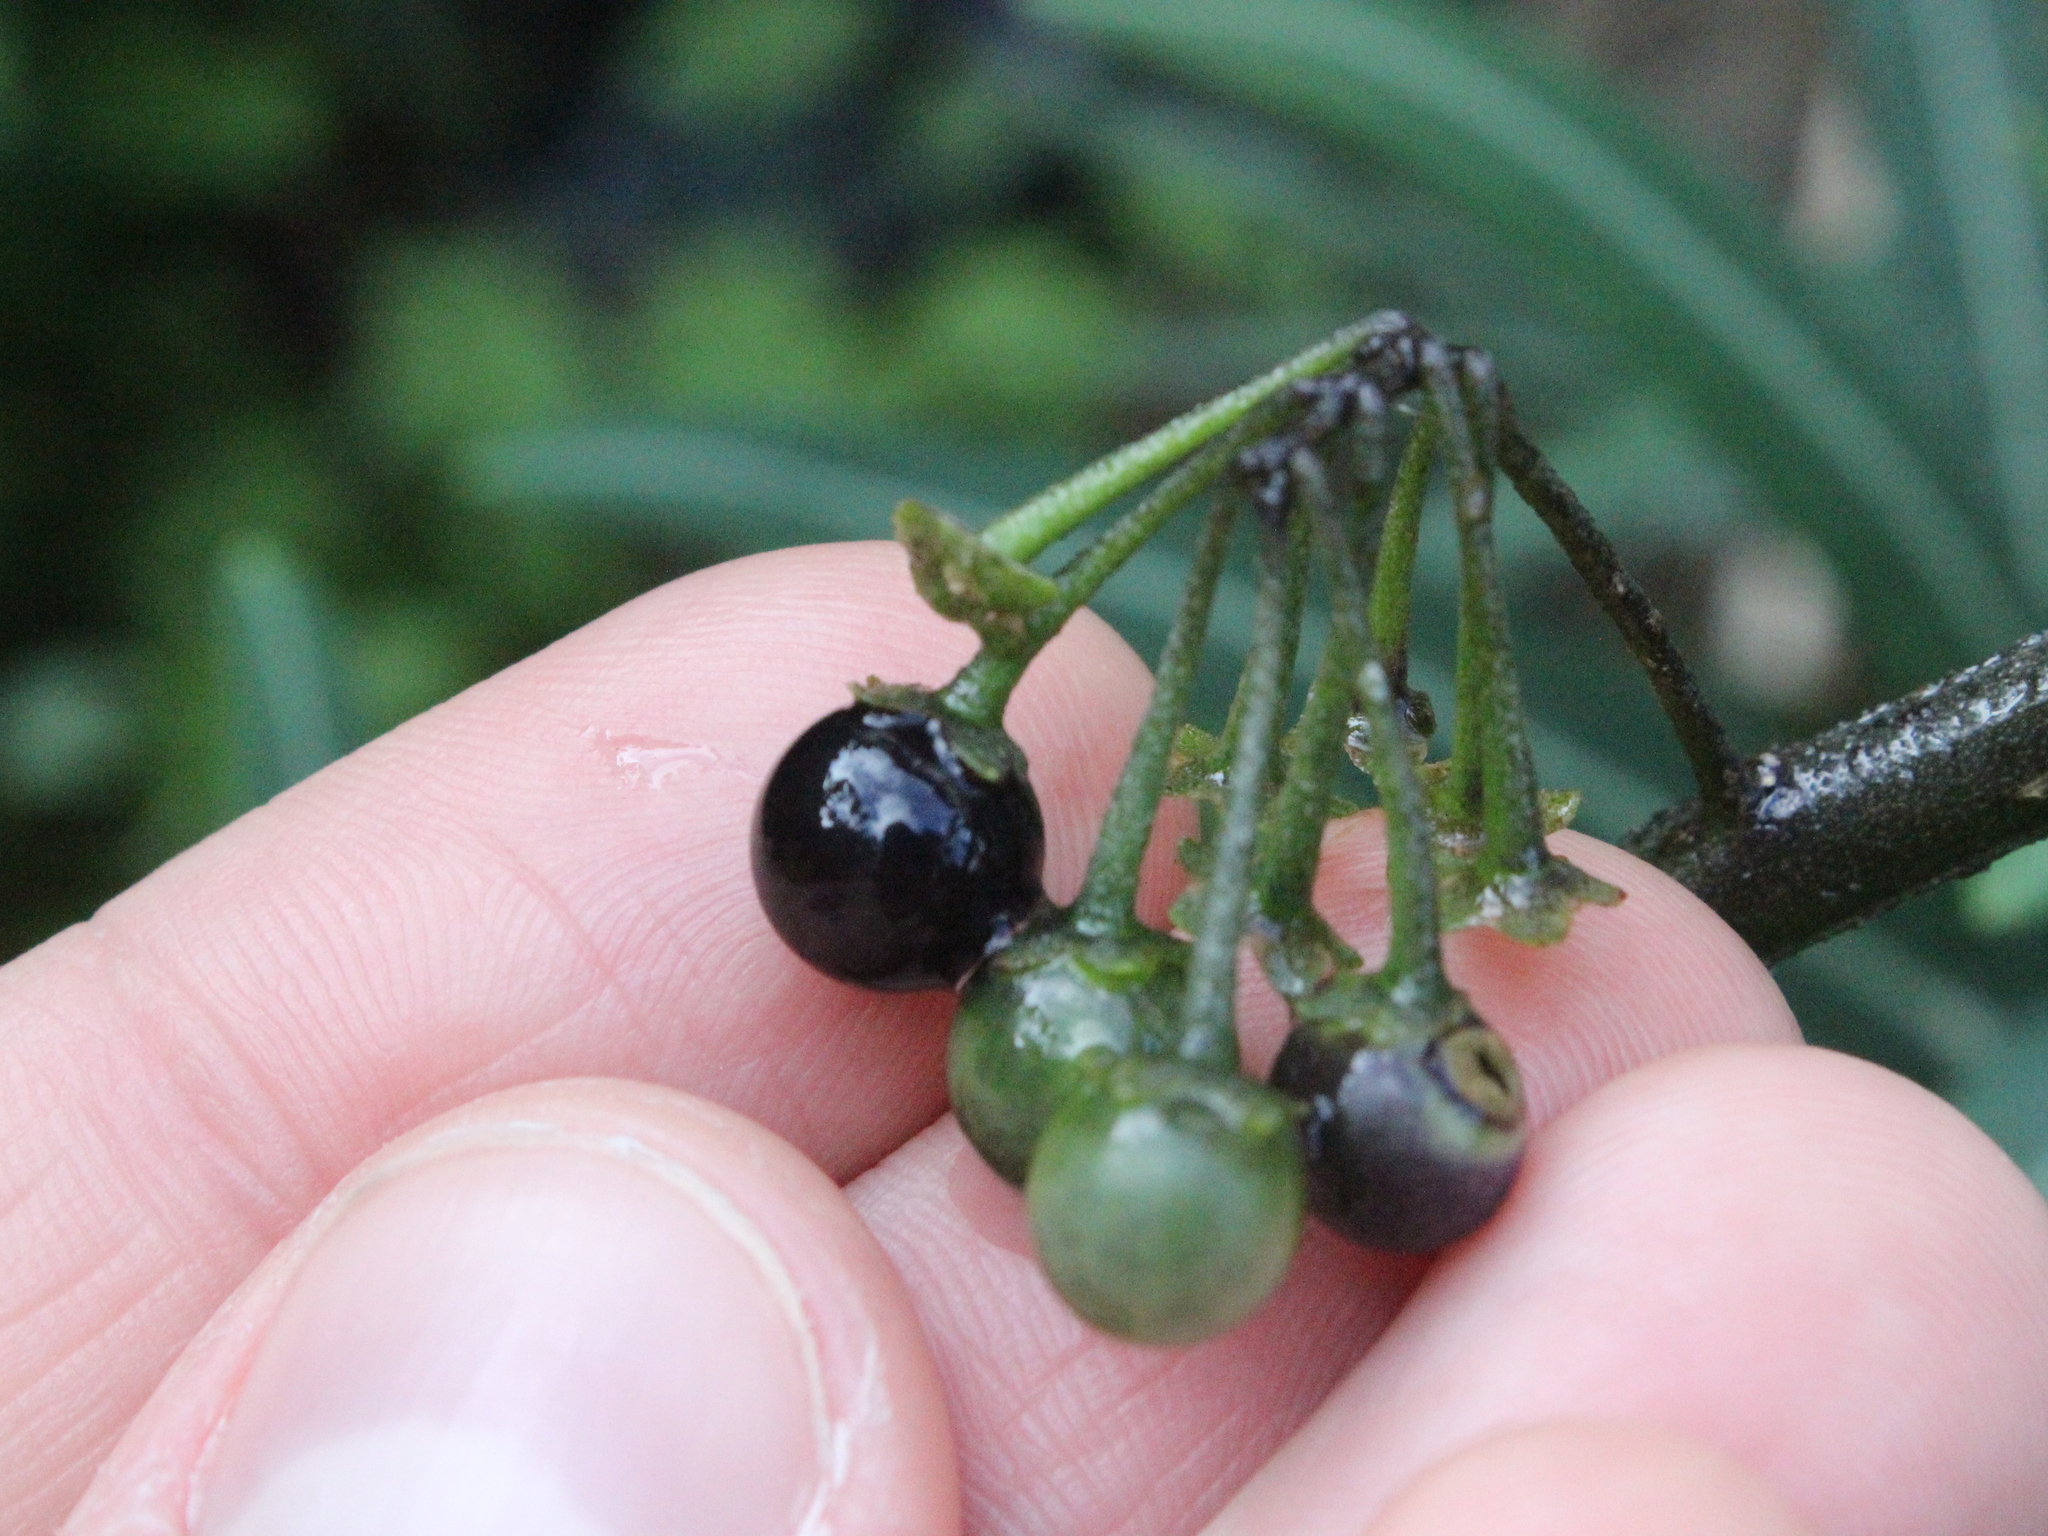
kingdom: Plantae
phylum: Tracheophyta
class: Magnoliopsida
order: Solanales
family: Solanaceae
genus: Solanum
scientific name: Solanum nigrum
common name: Black nightshade
